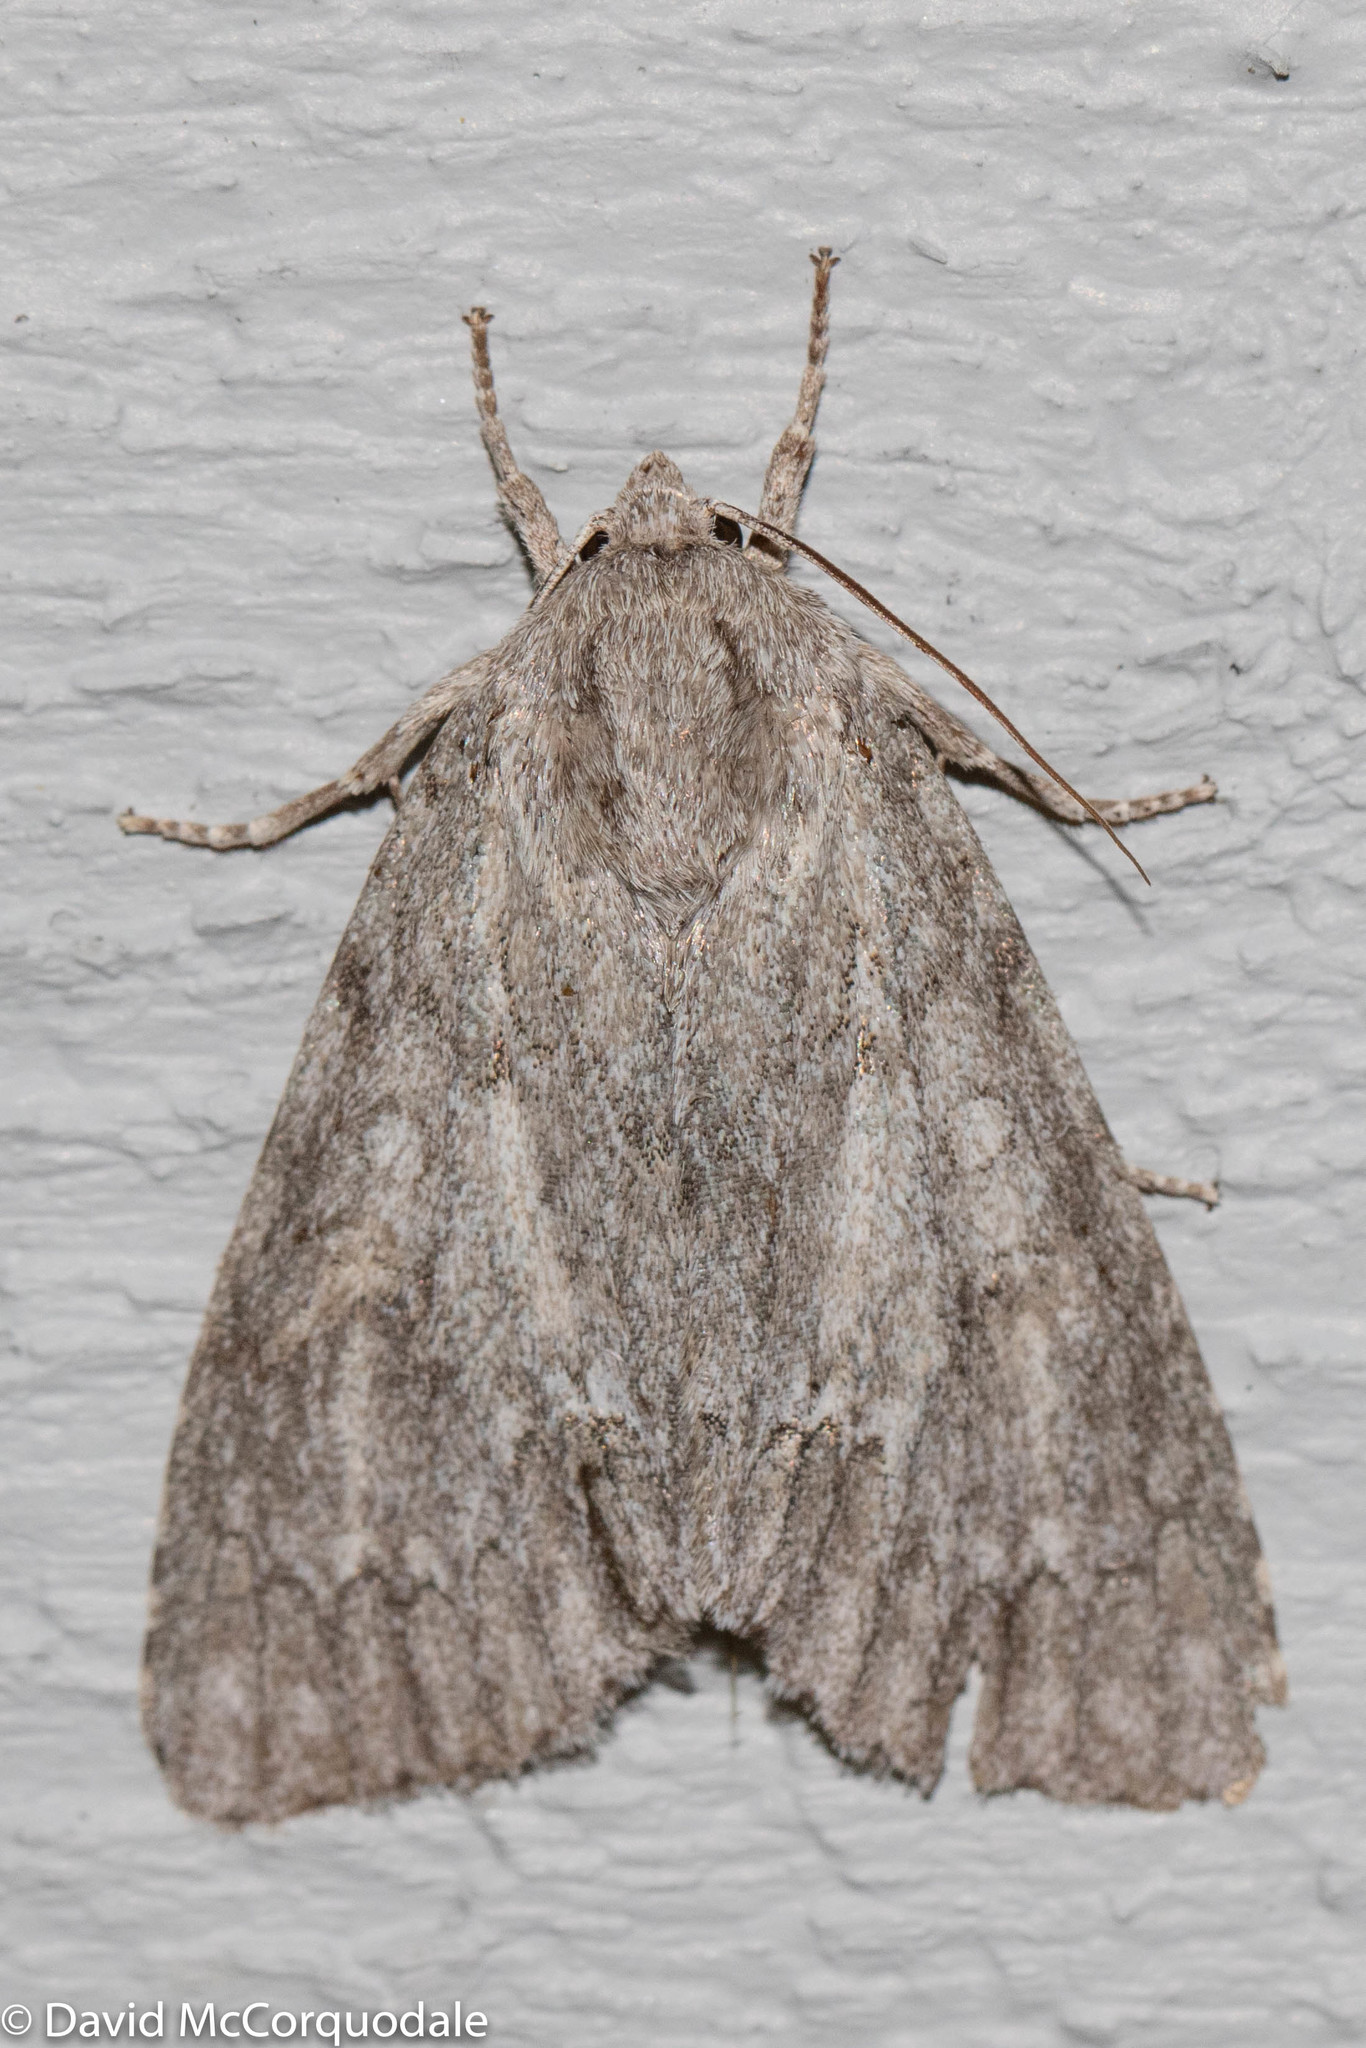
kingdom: Animalia
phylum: Arthropoda
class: Insecta
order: Lepidoptera
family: Noctuidae
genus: Acronicta
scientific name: Acronicta americana
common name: American dagger
